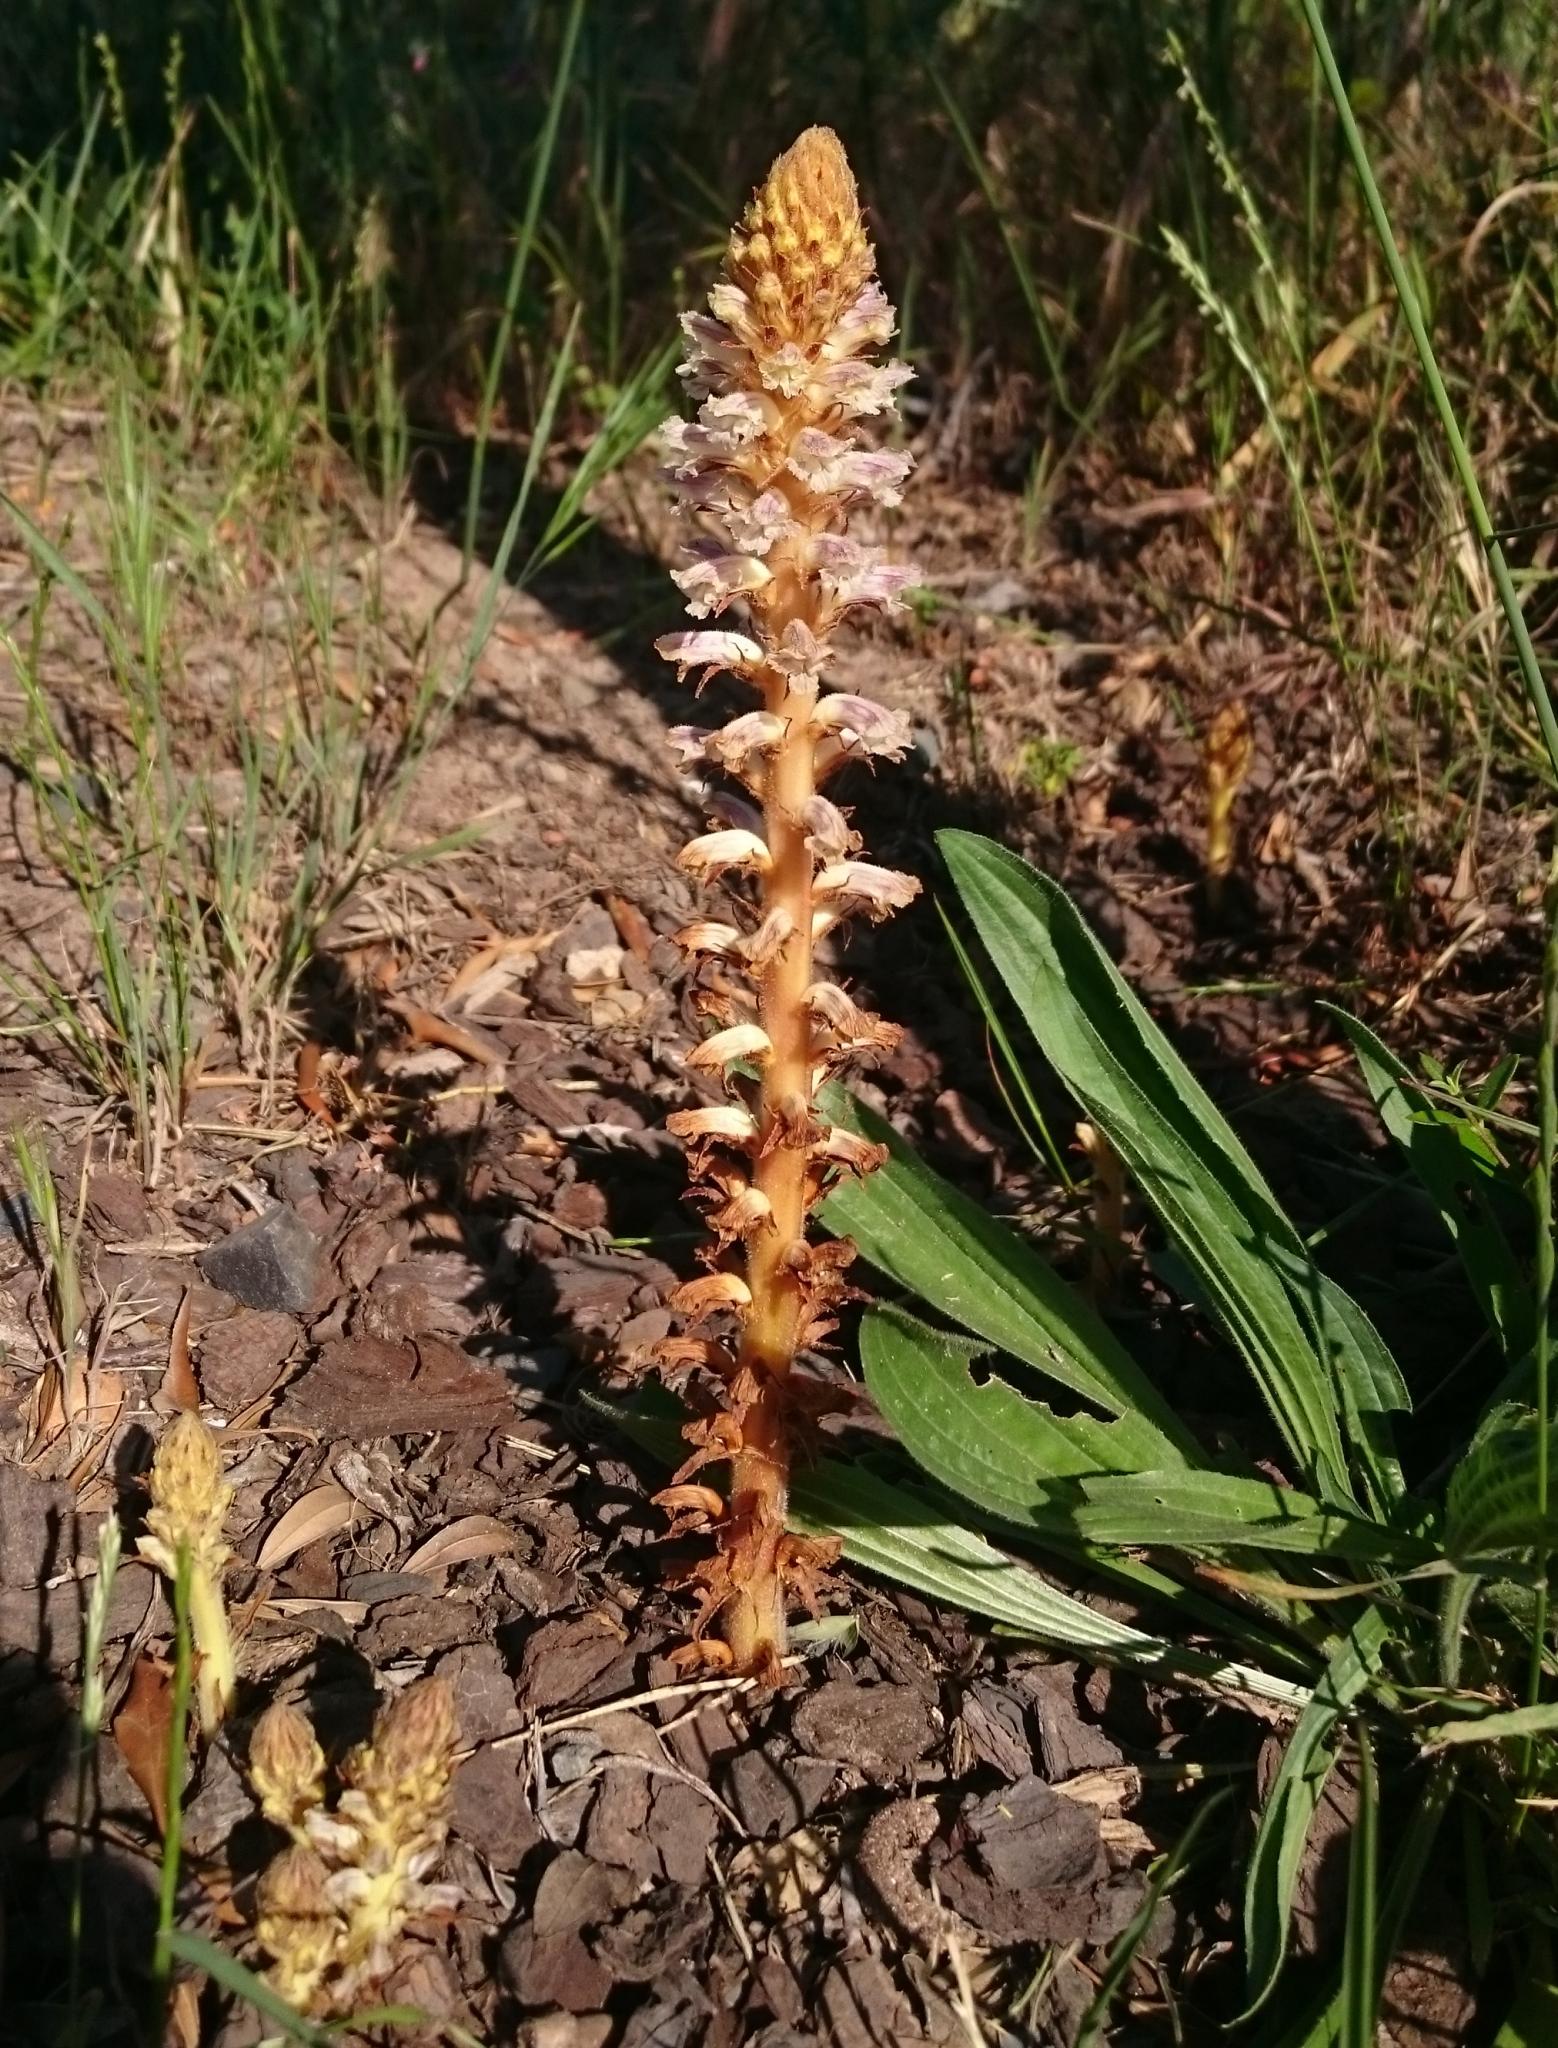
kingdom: Plantae
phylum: Tracheophyta
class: Magnoliopsida
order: Lamiales
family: Orobanchaceae
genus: Orobanche
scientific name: Orobanche minor
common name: Common broomrape
